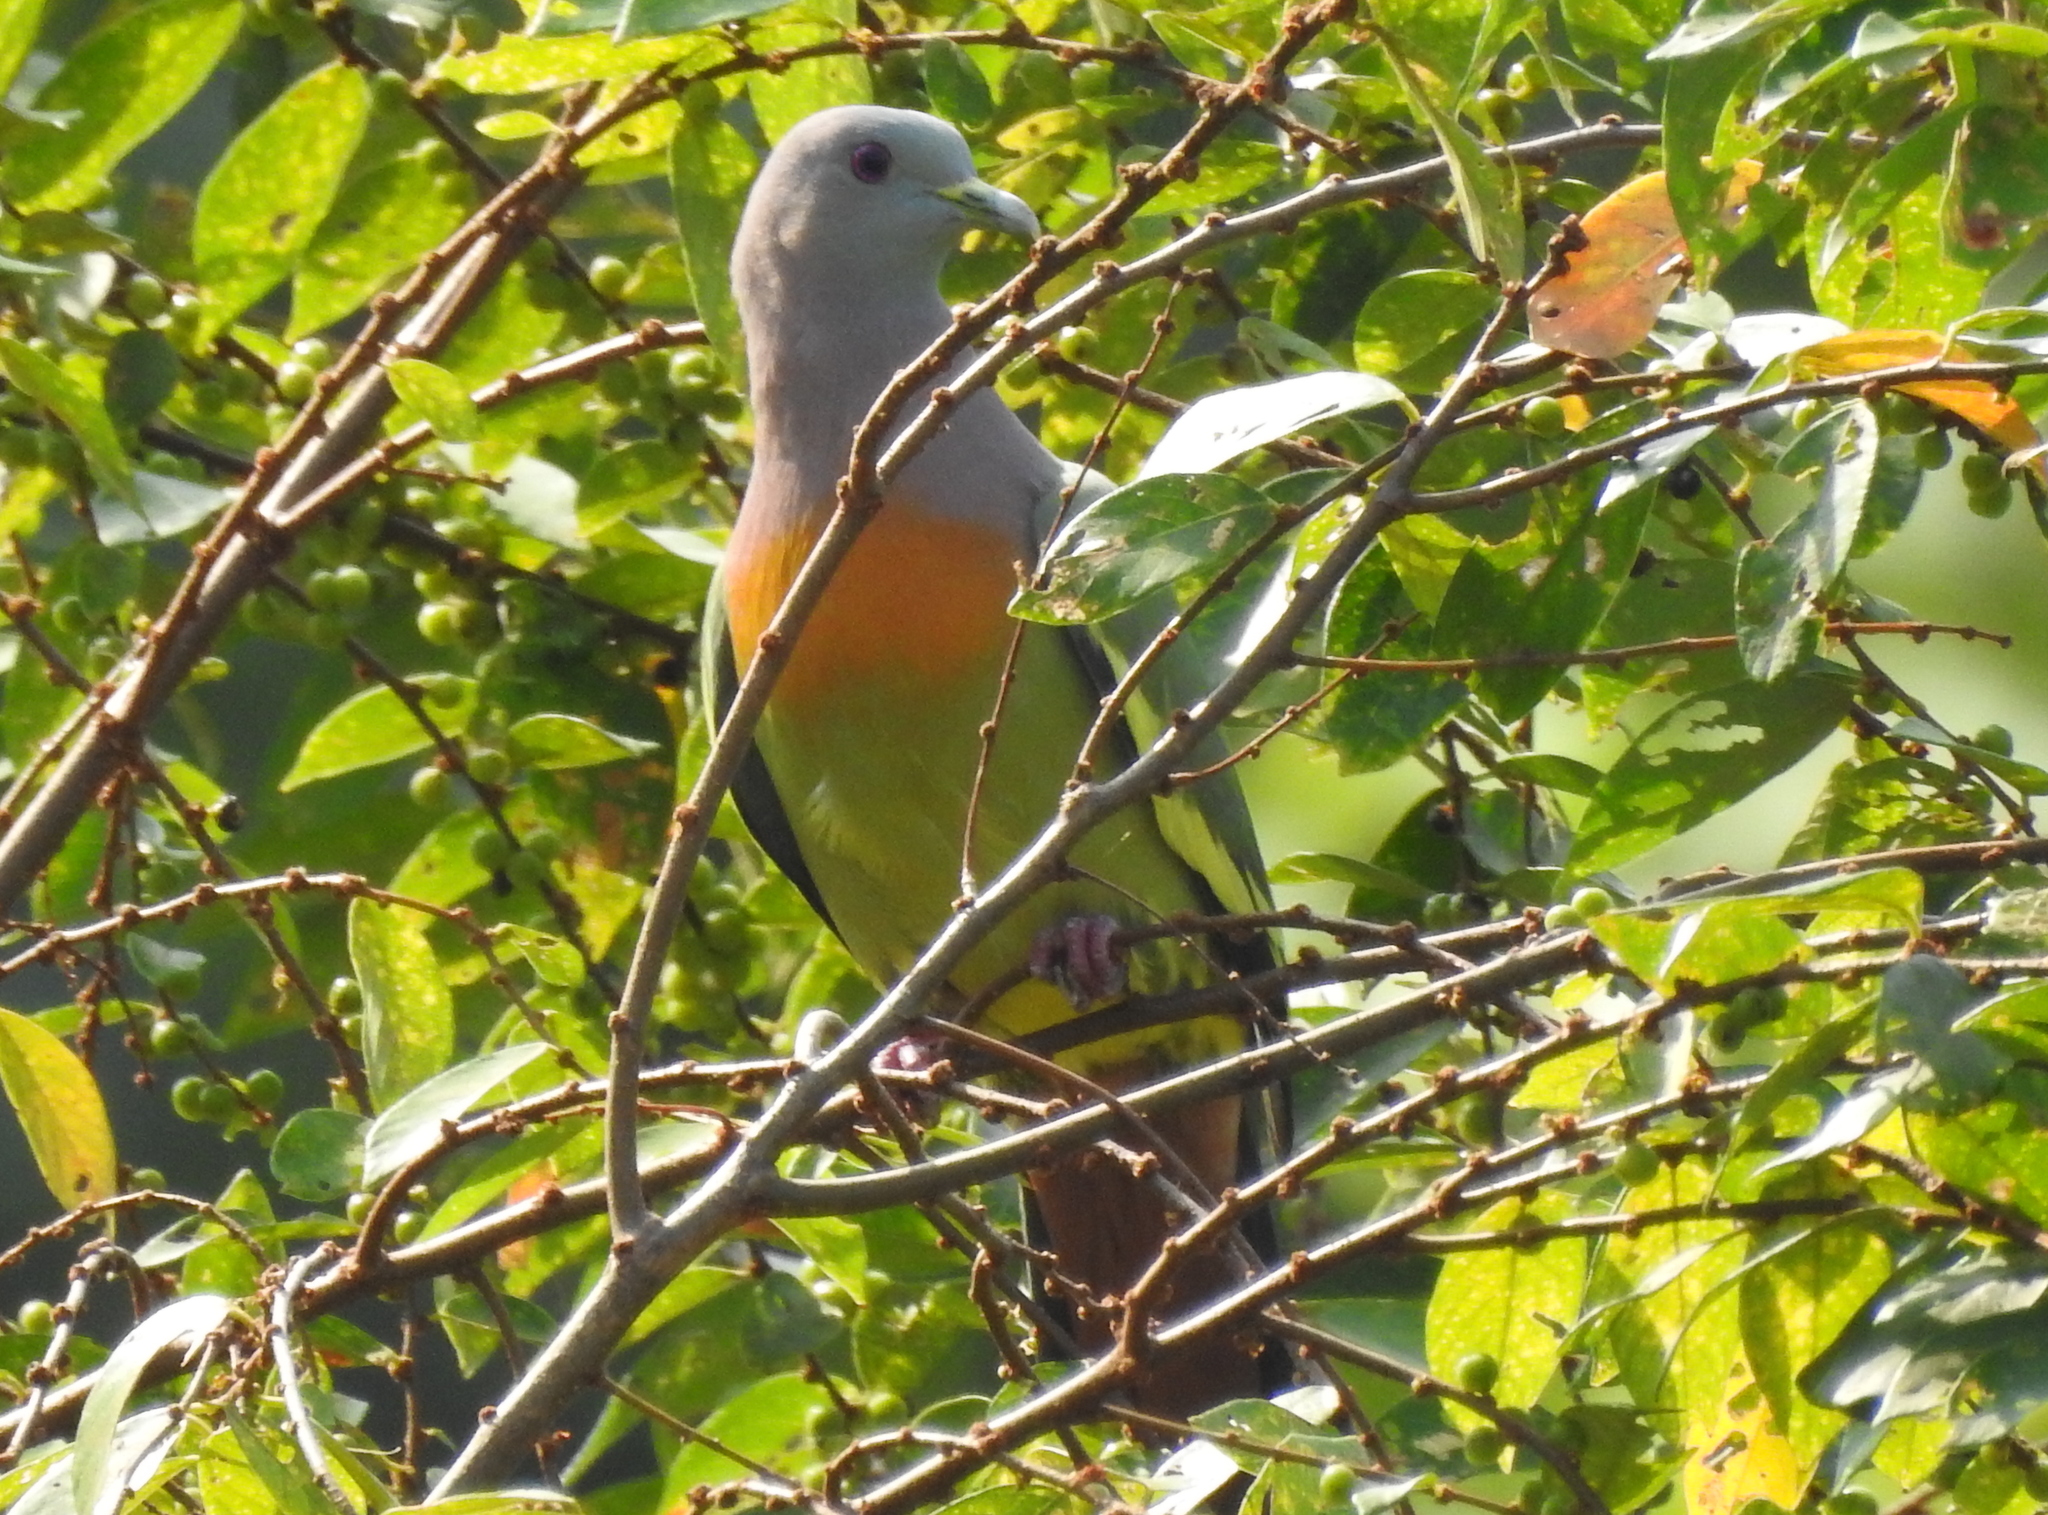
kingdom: Animalia
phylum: Chordata
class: Aves
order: Columbiformes
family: Columbidae
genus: Treron
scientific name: Treron vernans
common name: Pink-necked green pigeon
